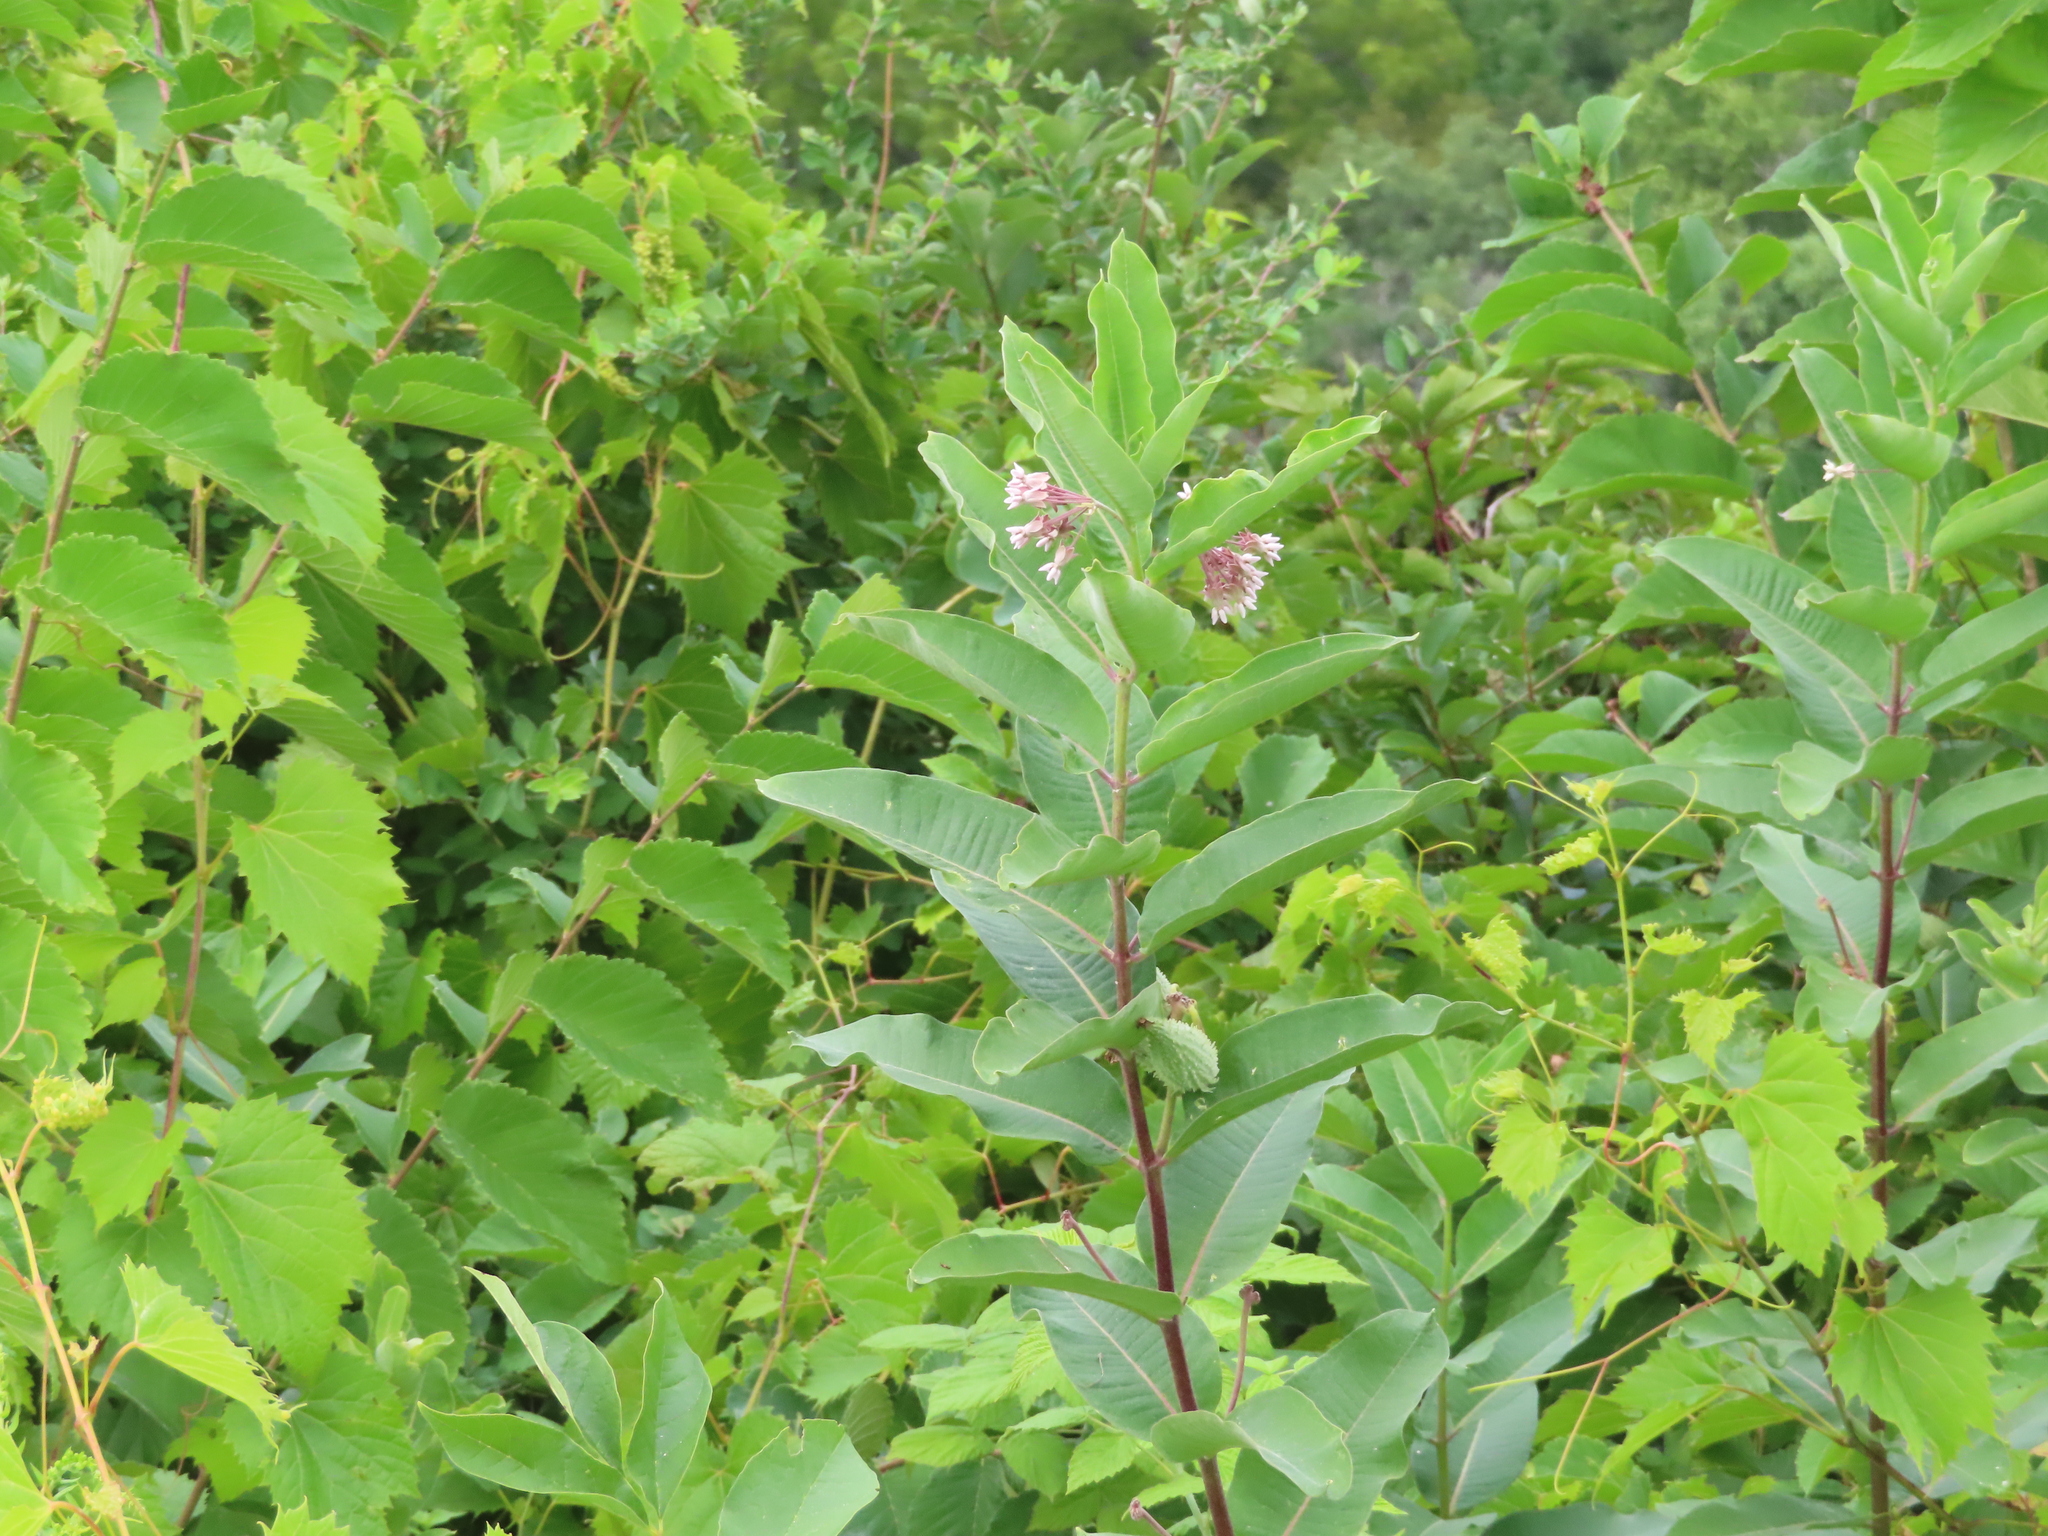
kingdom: Plantae
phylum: Tracheophyta
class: Magnoliopsida
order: Gentianales
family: Apocynaceae
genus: Asclepias
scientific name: Asclepias syriaca
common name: Common milkweed
